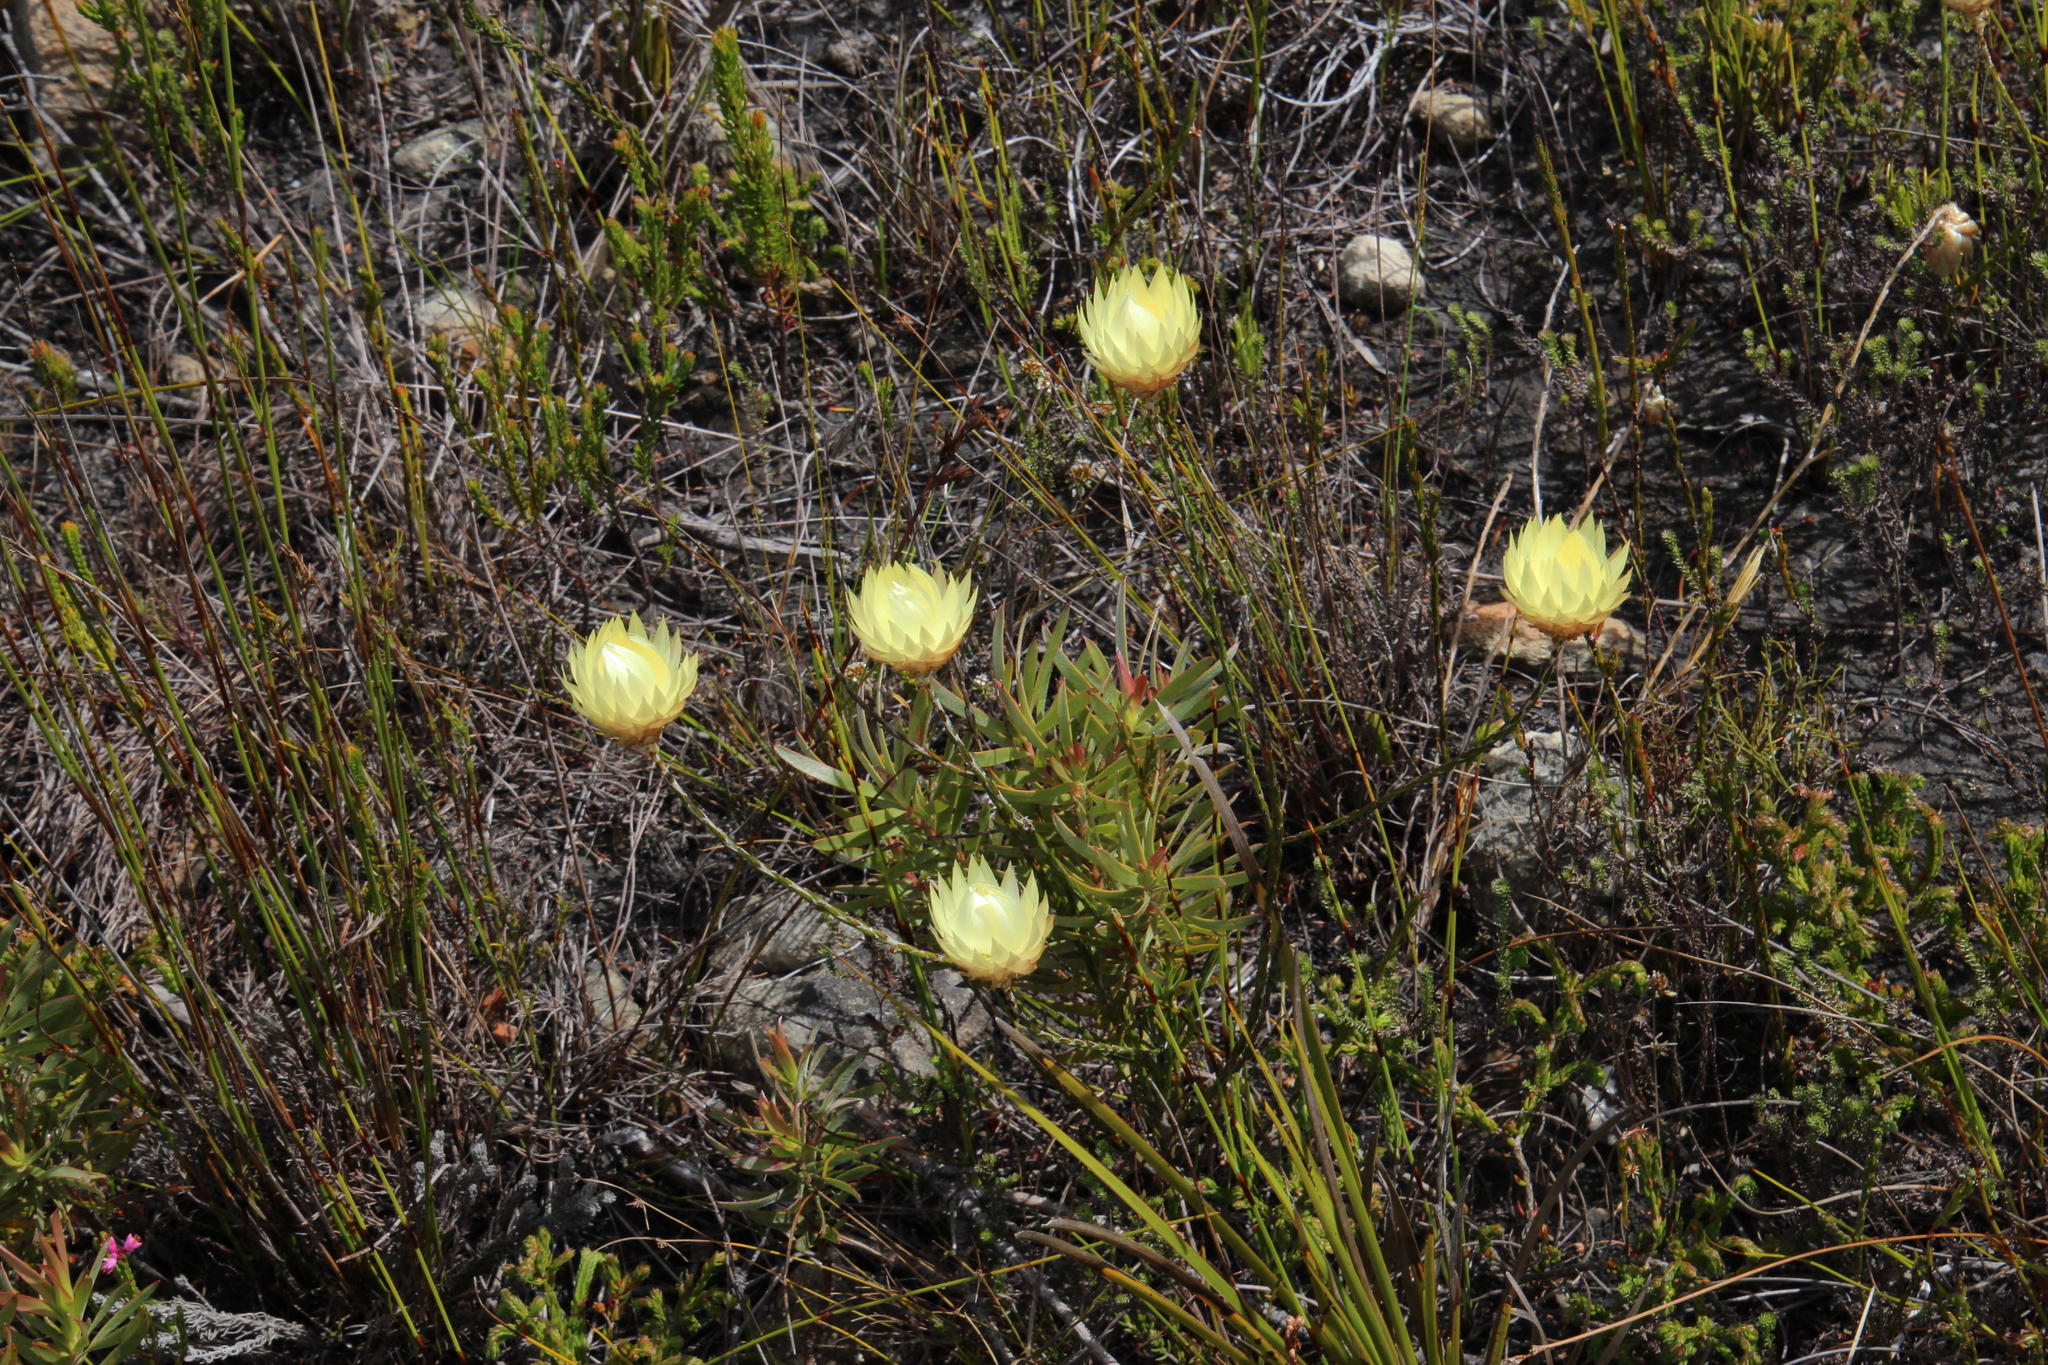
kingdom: Plantae
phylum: Tracheophyta
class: Magnoliopsida
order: Asterales
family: Asteraceae
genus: Edmondia
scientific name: Edmondia sesamoides
